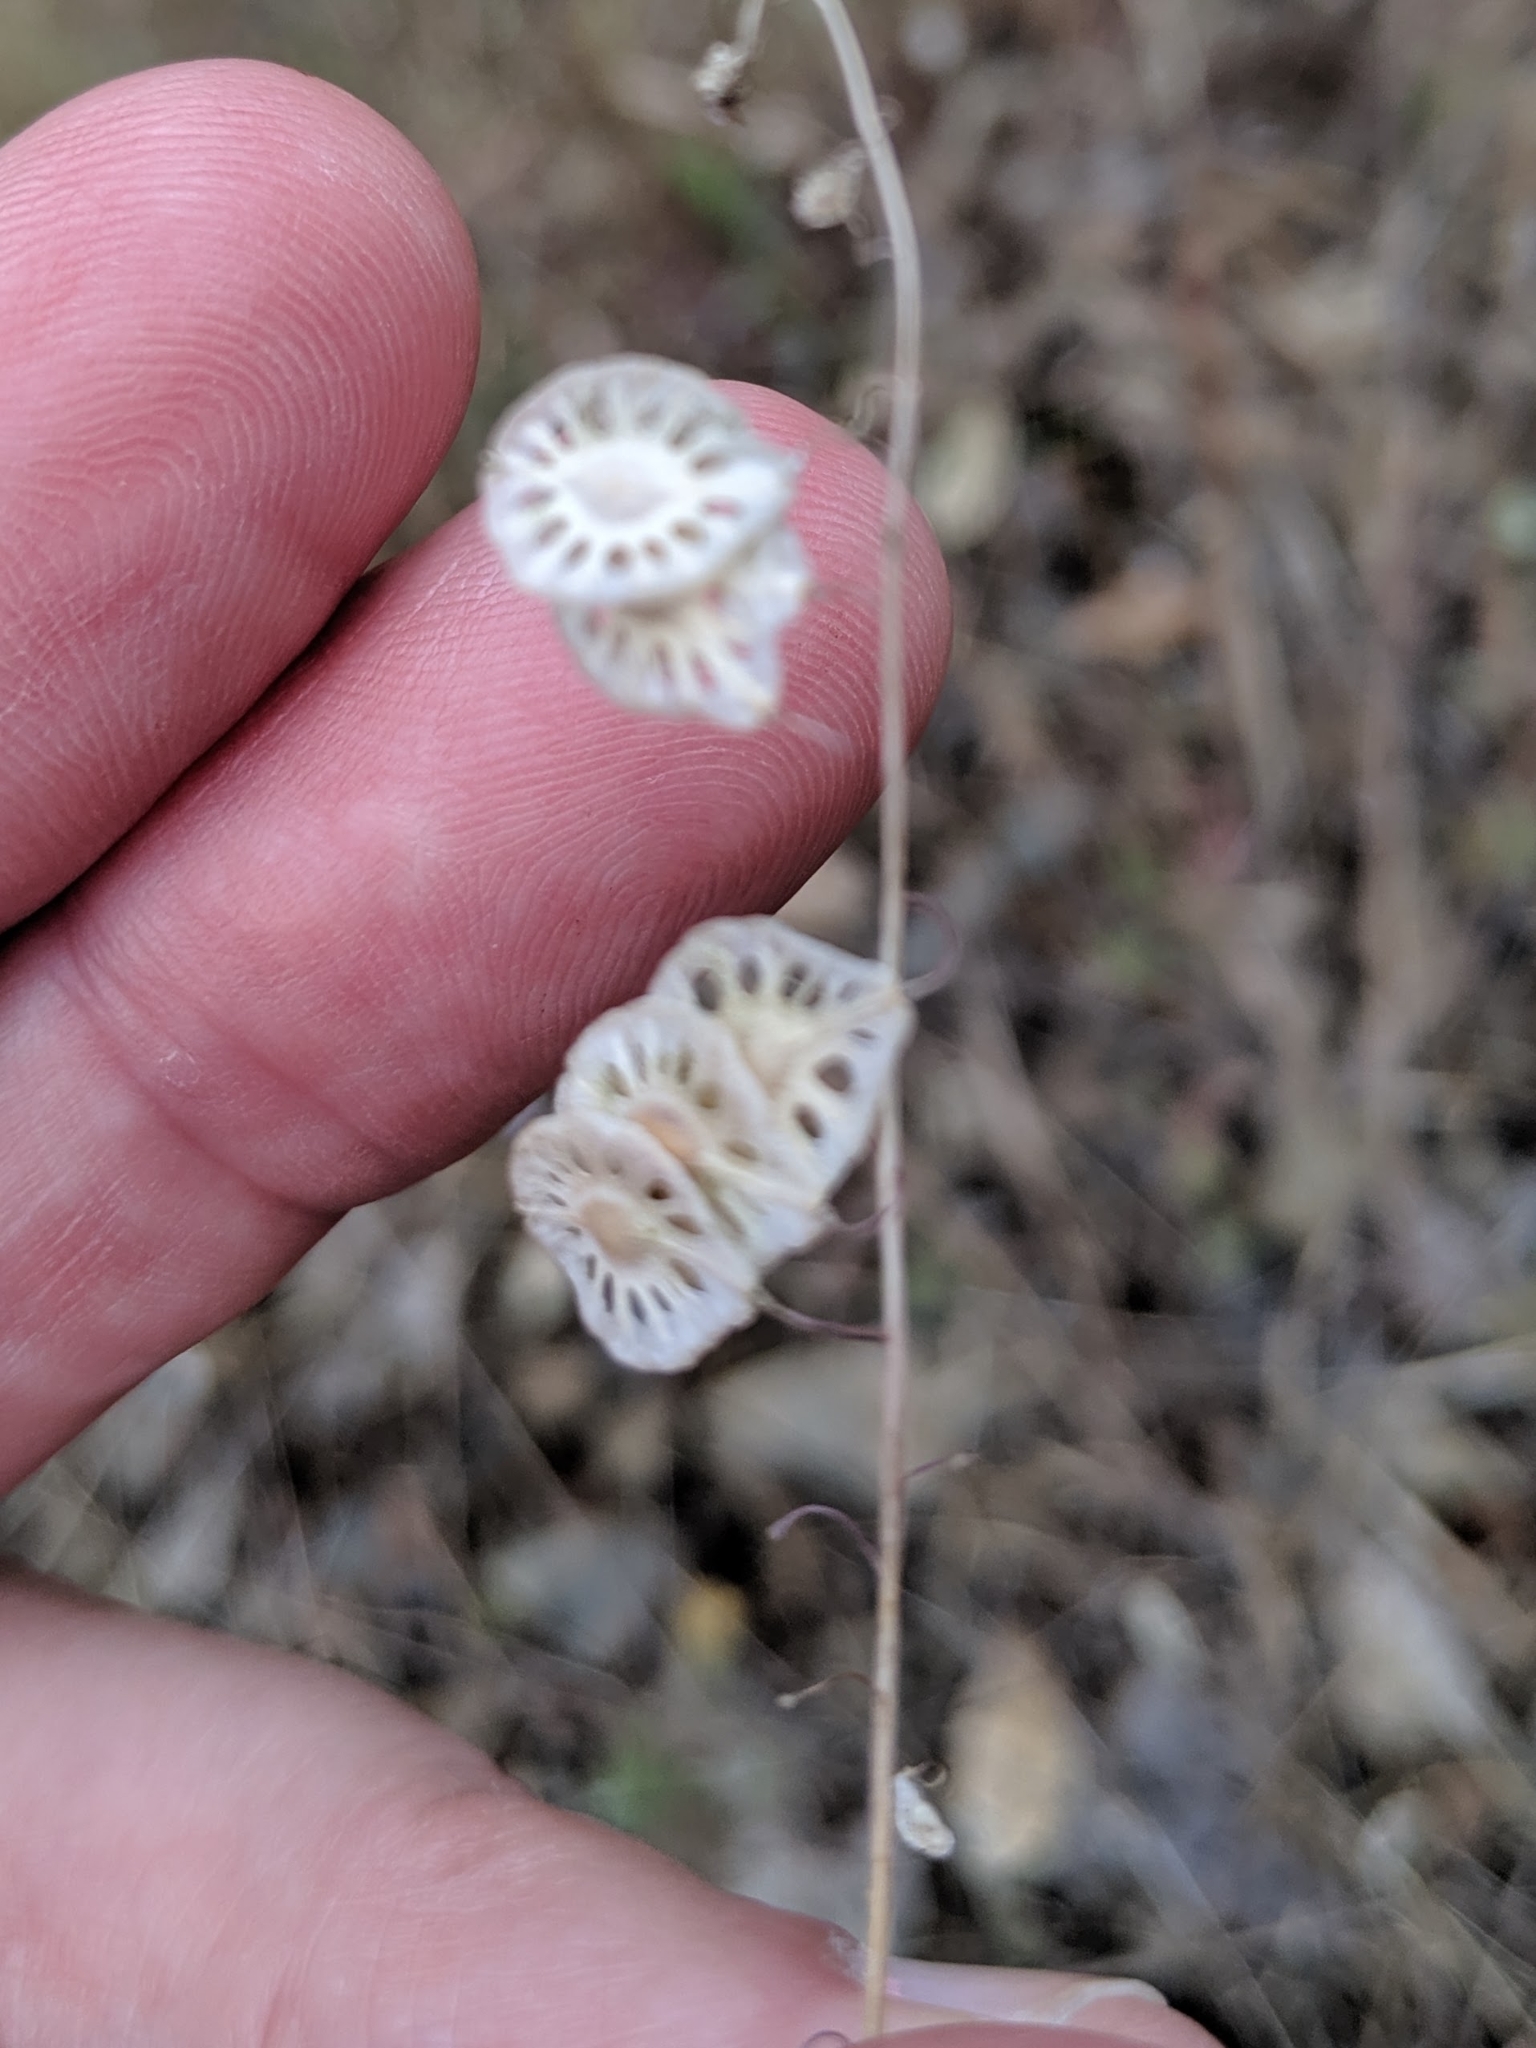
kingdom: Plantae
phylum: Tracheophyta
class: Magnoliopsida
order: Brassicales
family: Brassicaceae
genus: Thysanocarpus
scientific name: Thysanocarpus curvipes
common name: Sand fringepod
